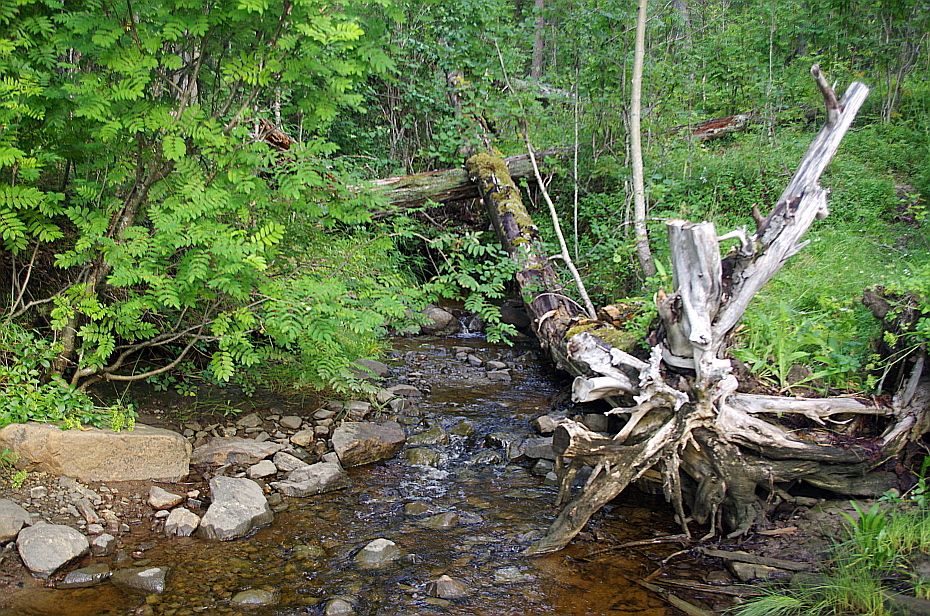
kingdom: Plantae
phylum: Tracheophyta
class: Magnoliopsida
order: Rosales
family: Rosaceae
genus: Sorbus
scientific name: Sorbus aucuparia
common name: Rowan
